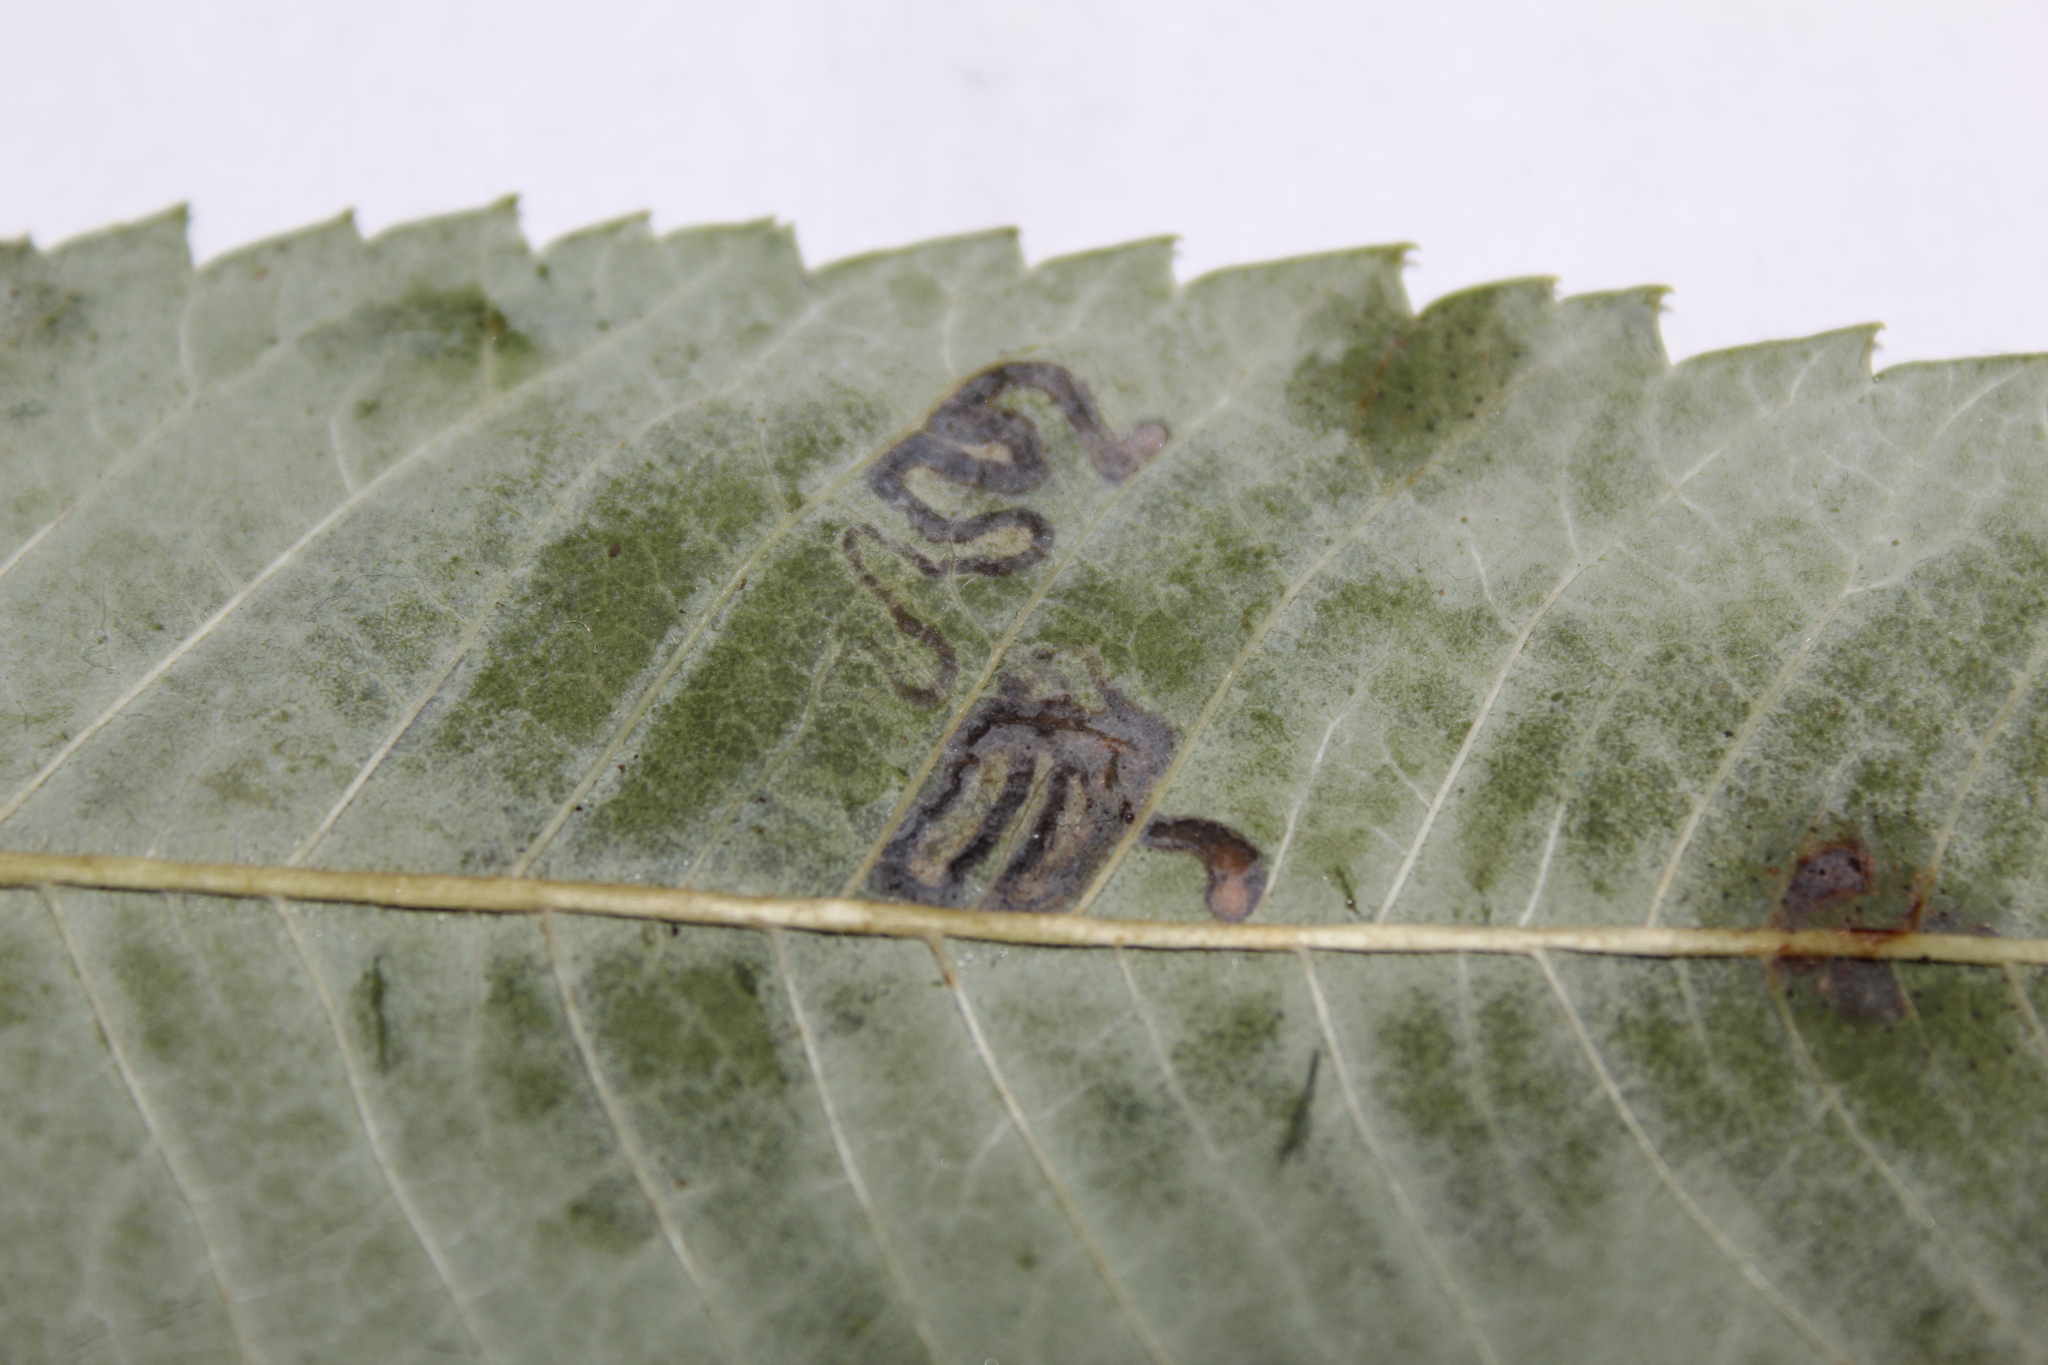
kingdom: Animalia
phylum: Arthropoda
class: Insecta
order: Lepidoptera
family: Nepticulidae
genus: Stigmella
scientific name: Stigmella intermedia
